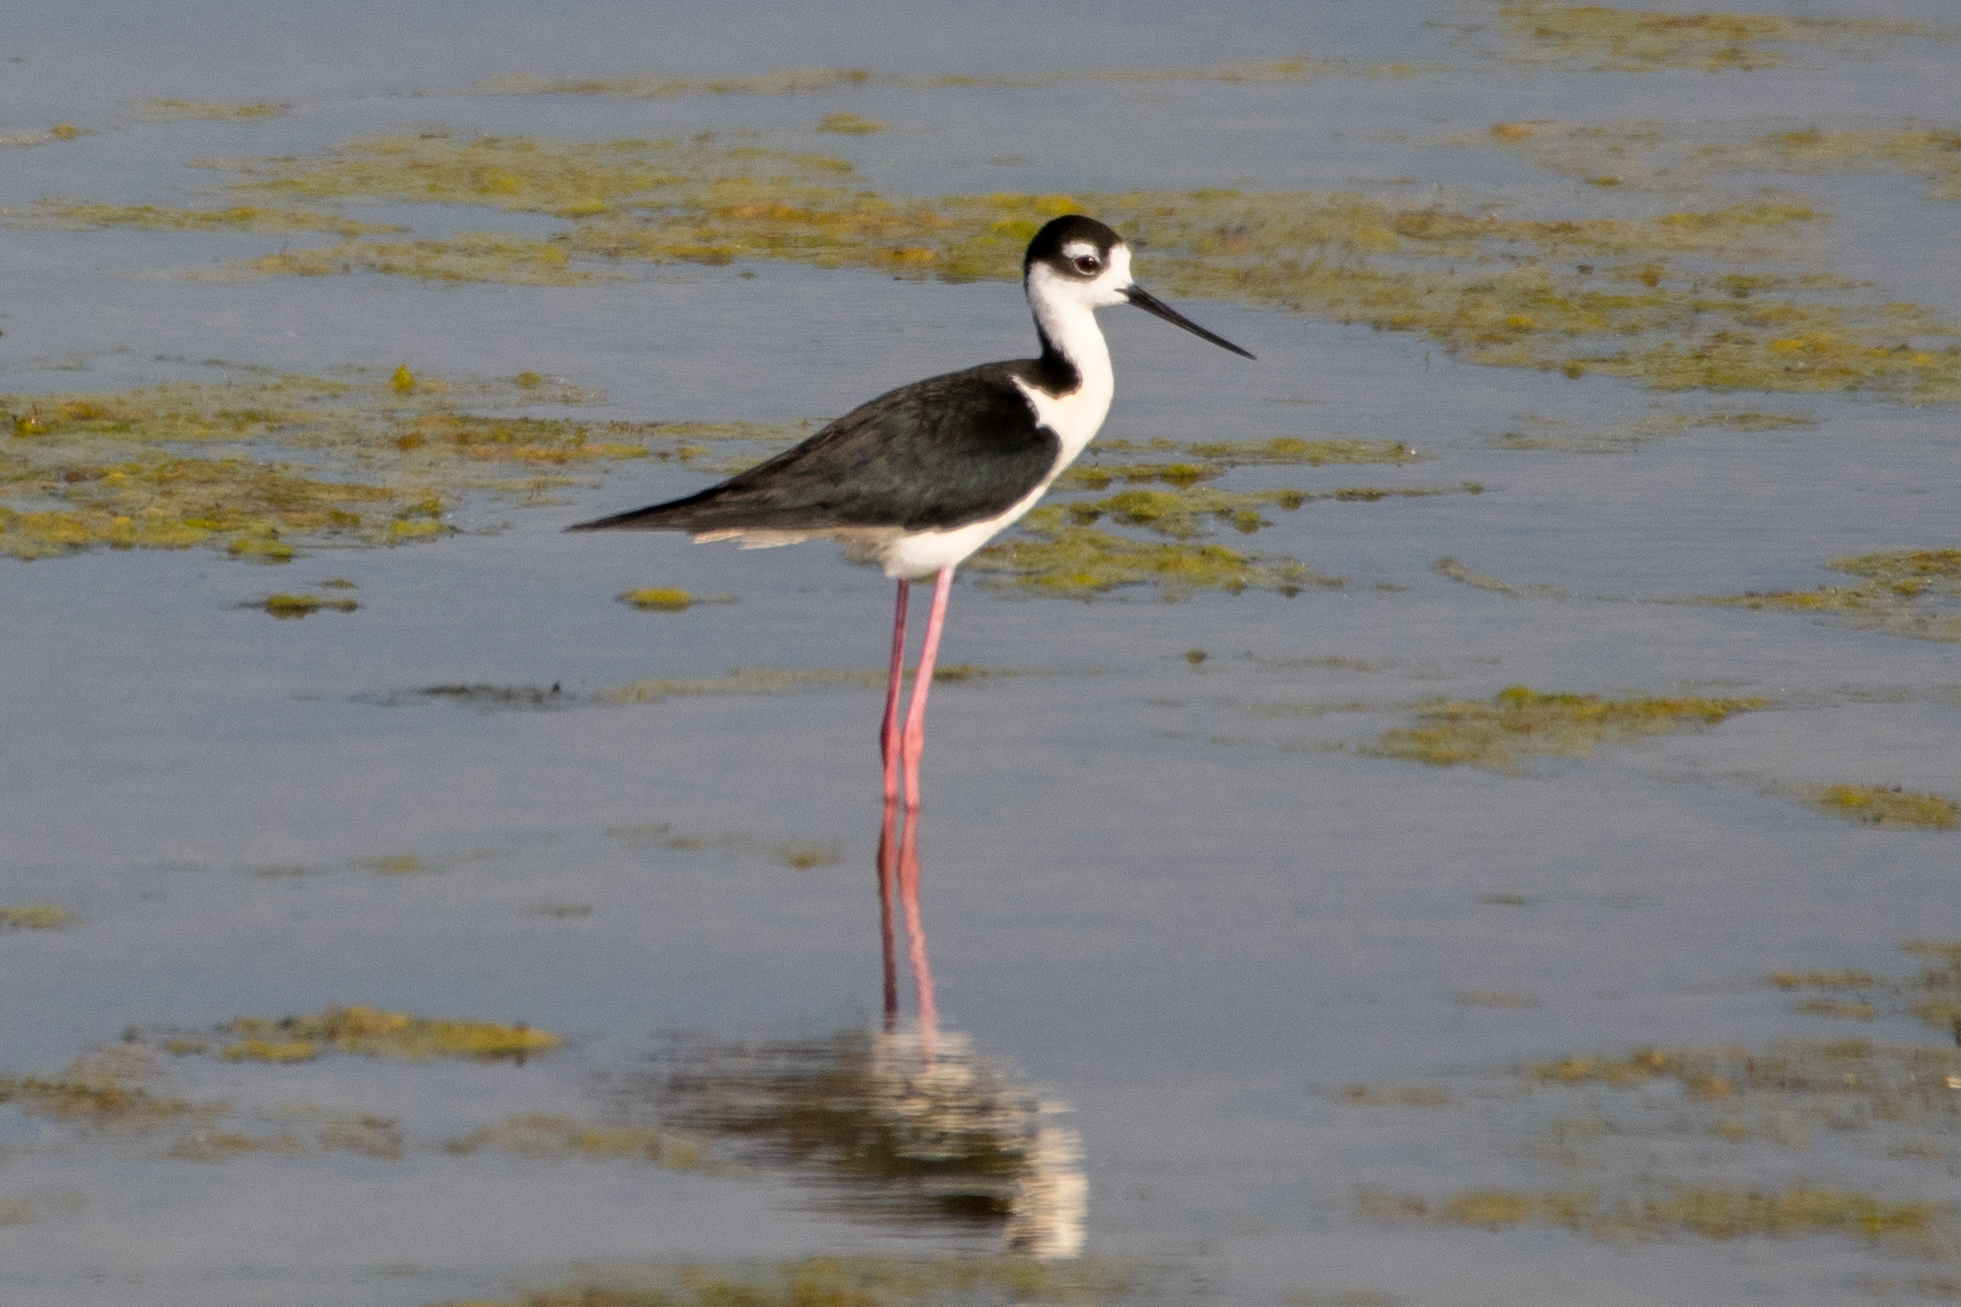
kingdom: Animalia
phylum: Chordata
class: Aves
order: Charadriiformes
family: Recurvirostridae
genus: Himantopus
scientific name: Himantopus mexicanus
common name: Black-necked stilt
